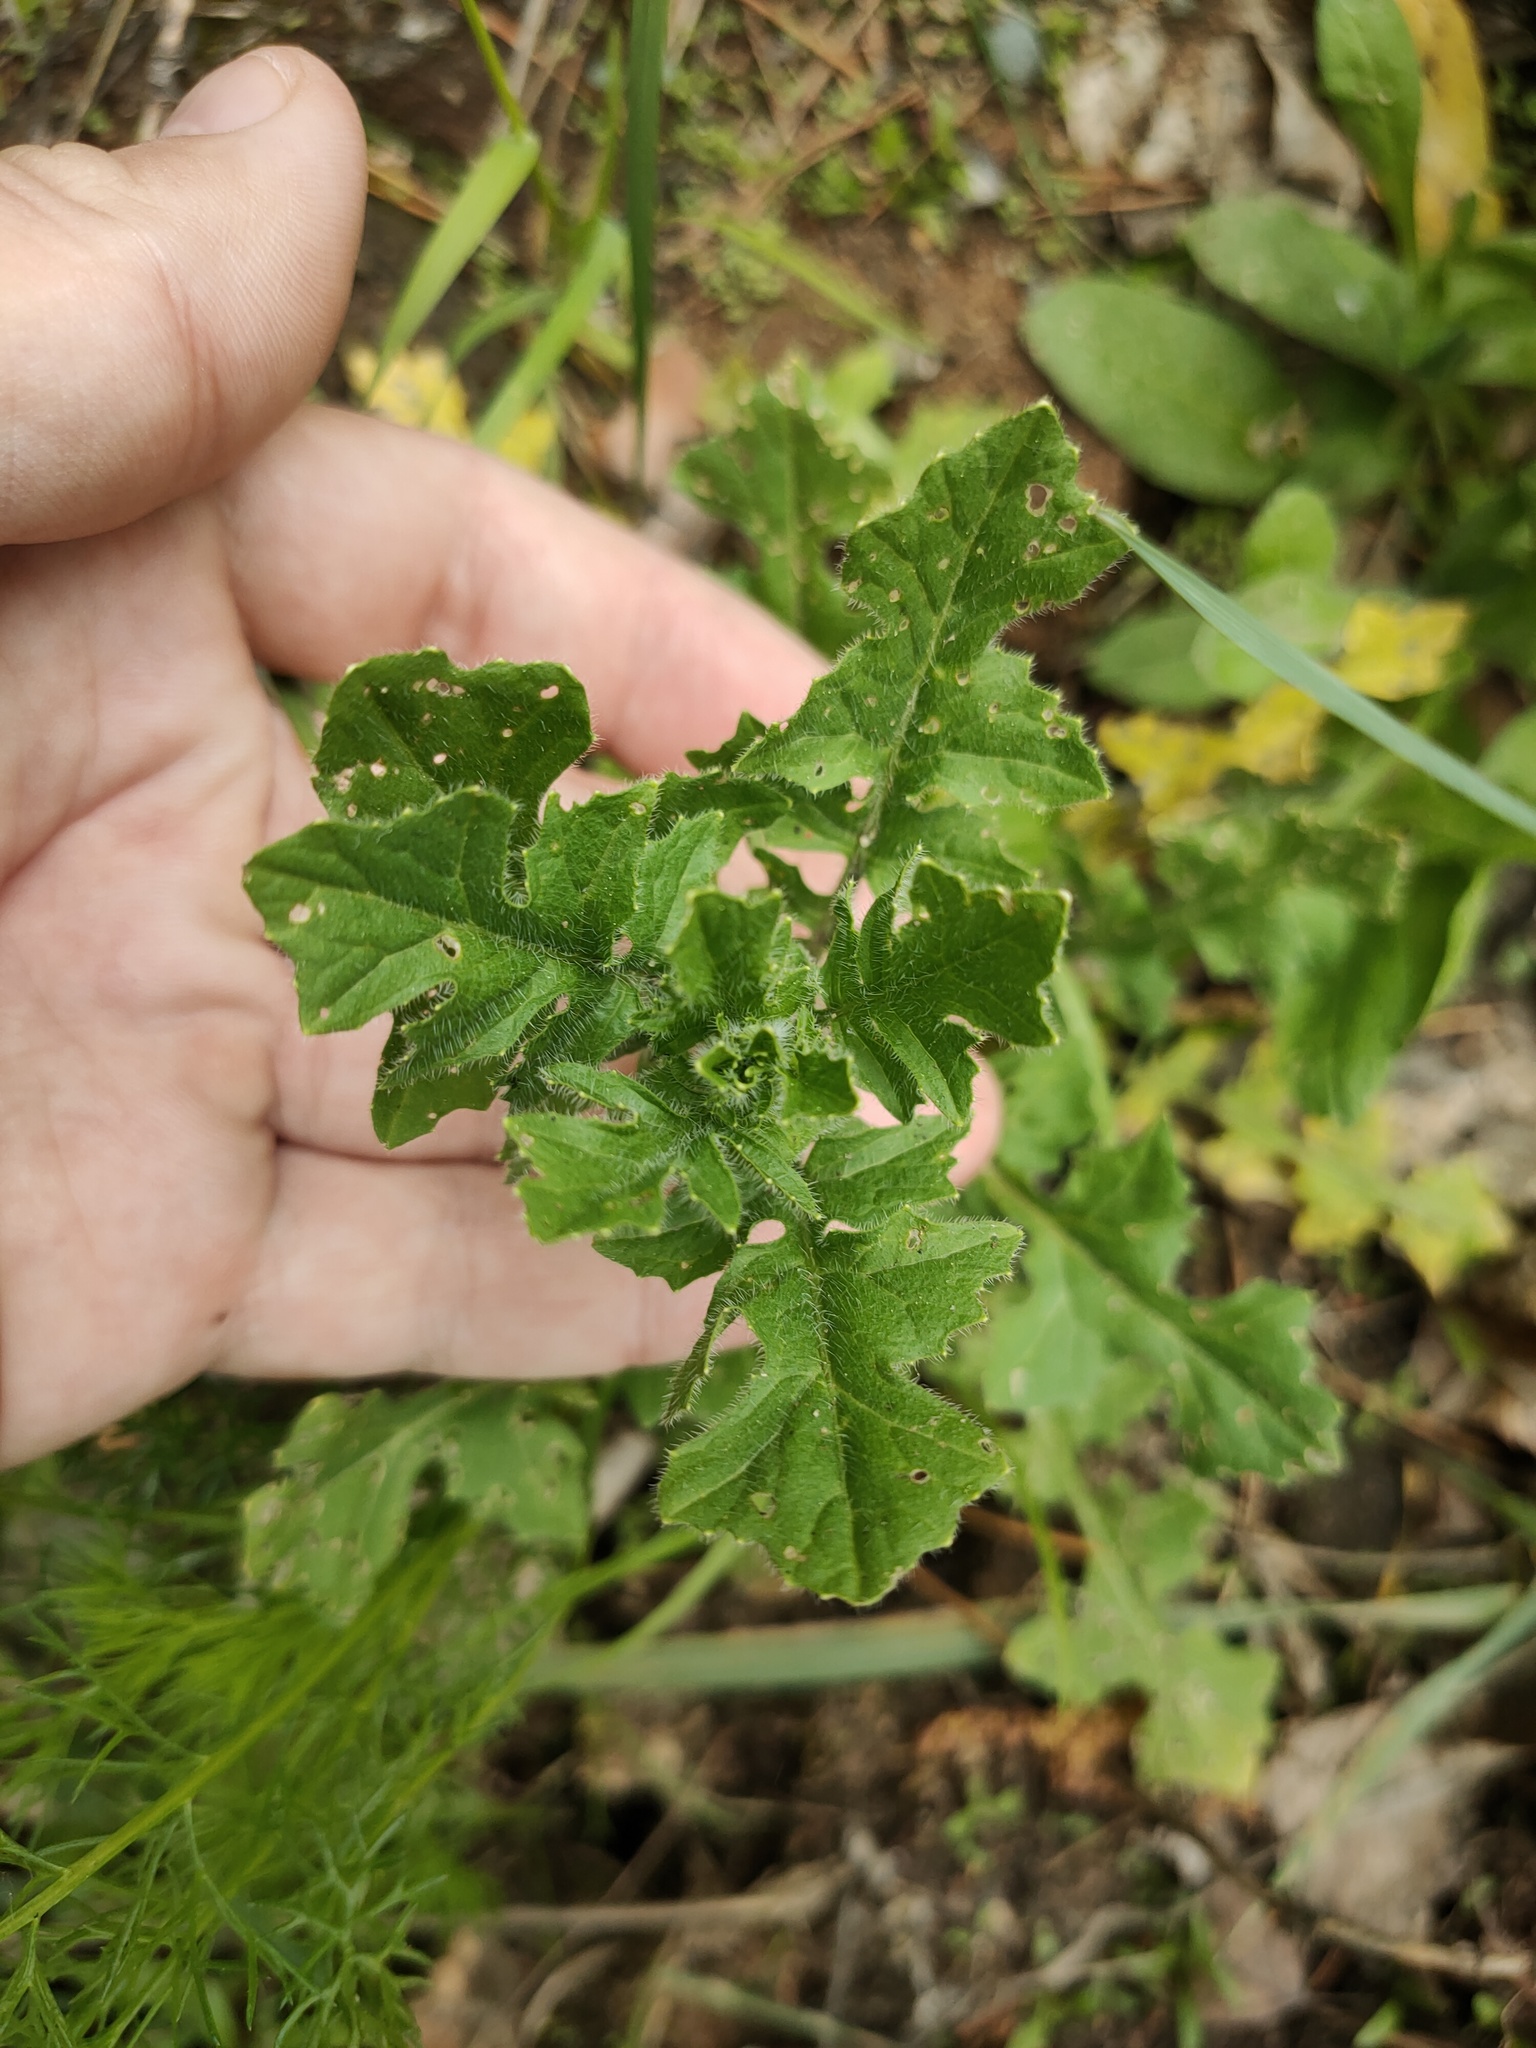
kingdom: Plantae
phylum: Tracheophyta
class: Magnoliopsida
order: Brassicales
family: Brassicaceae
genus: Sisymbrium
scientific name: Sisymbrium loeselii
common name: False london-rocket
